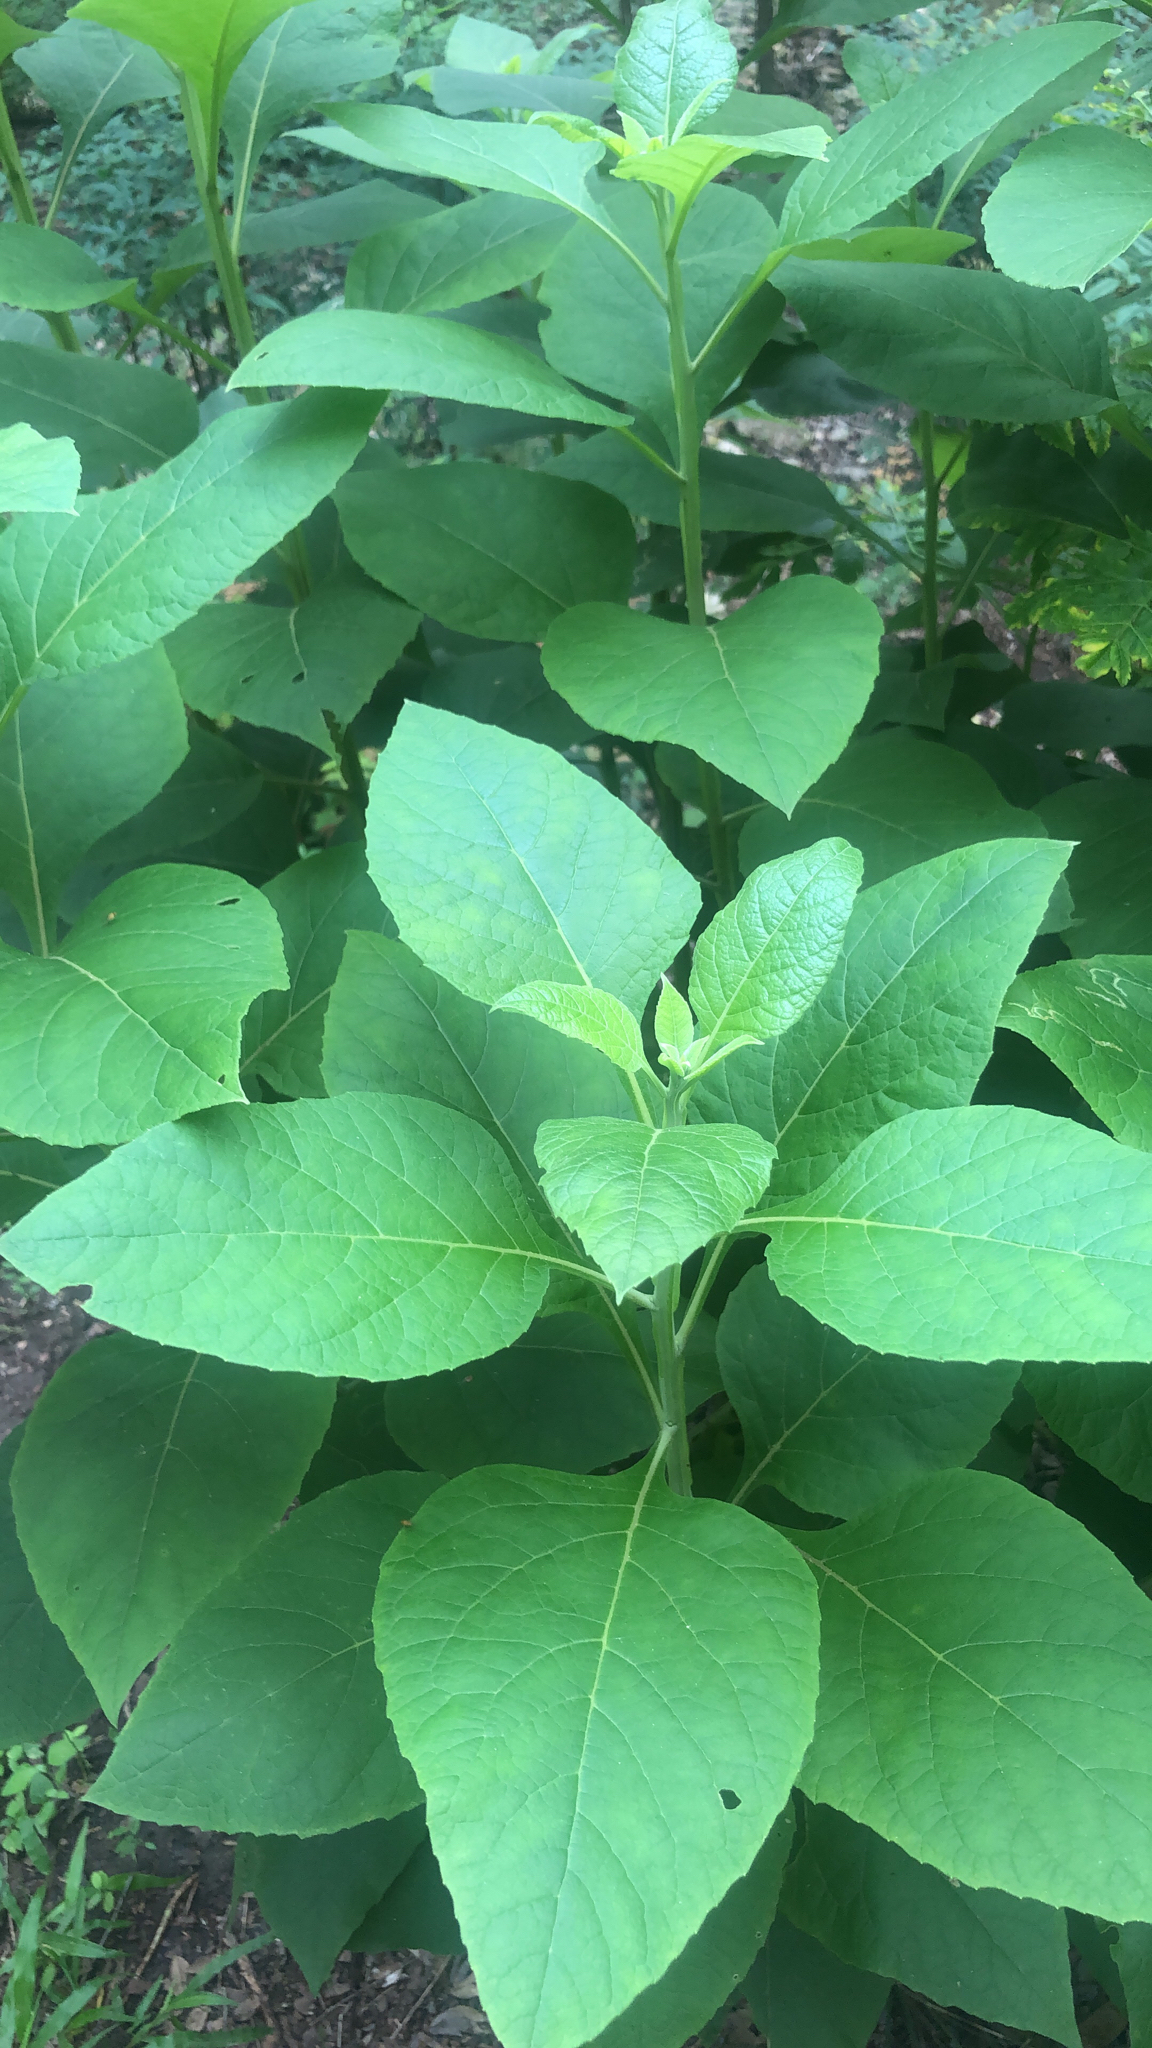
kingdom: Plantae
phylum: Tracheophyta
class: Magnoliopsida
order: Asterales
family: Asteraceae
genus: Verbesina
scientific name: Verbesina virginica
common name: Frostweed
